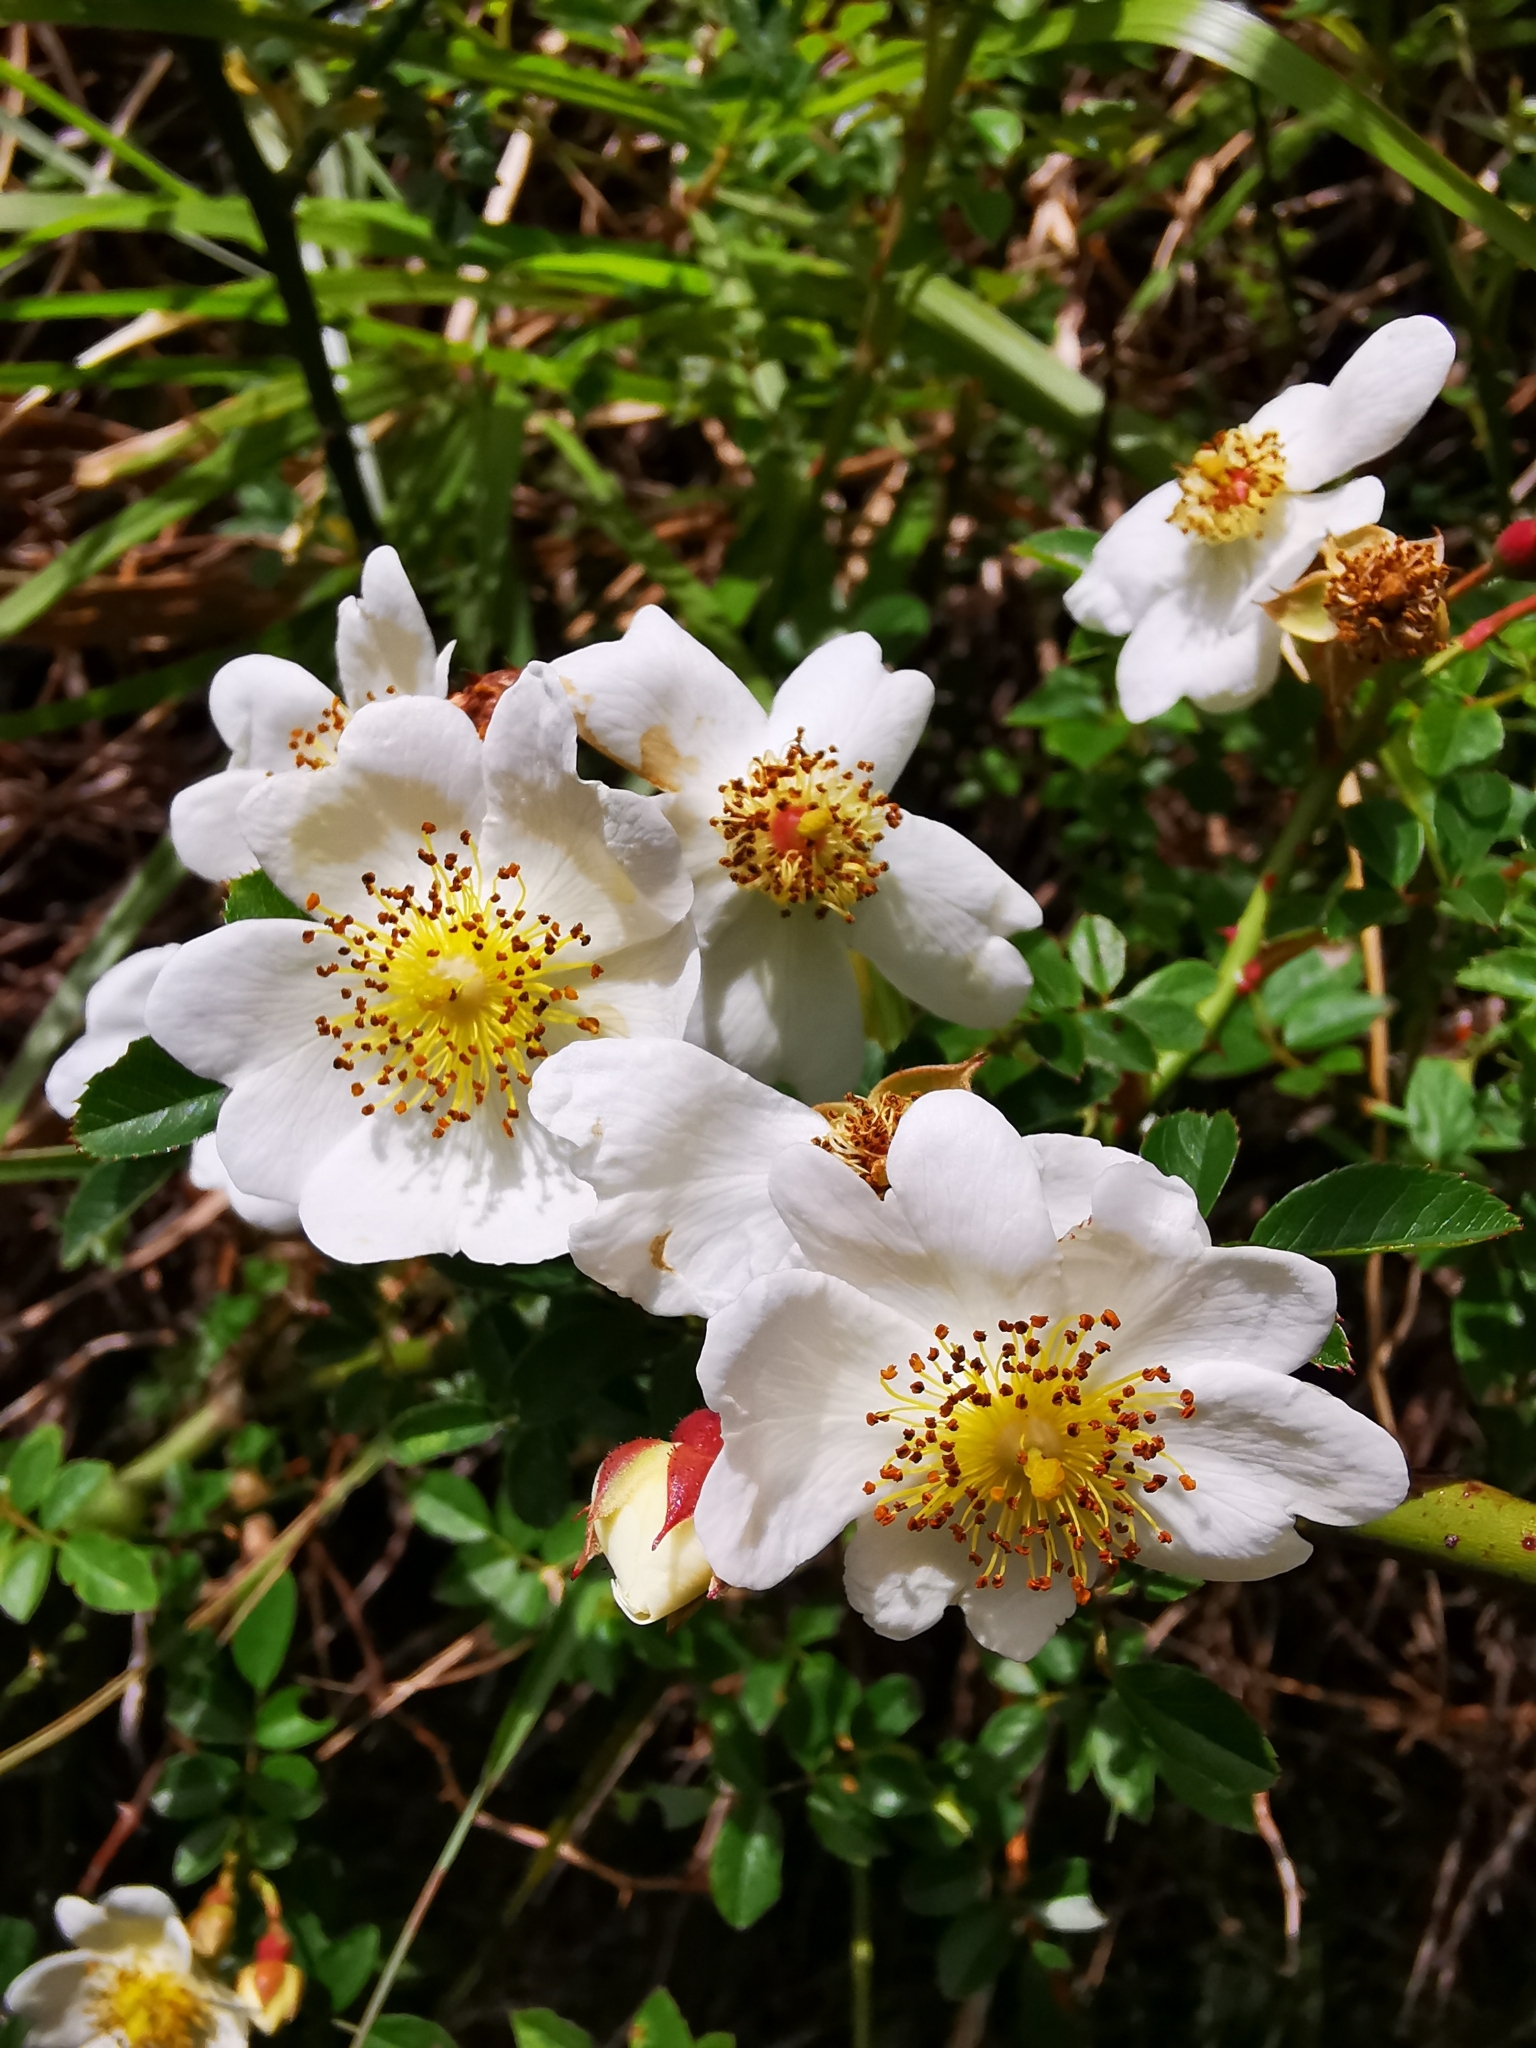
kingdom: Plantae
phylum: Tracheophyta
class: Magnoliopsida
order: Rosales
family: Rosaceae
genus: Rosa
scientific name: Rosa transmorrisonensis
